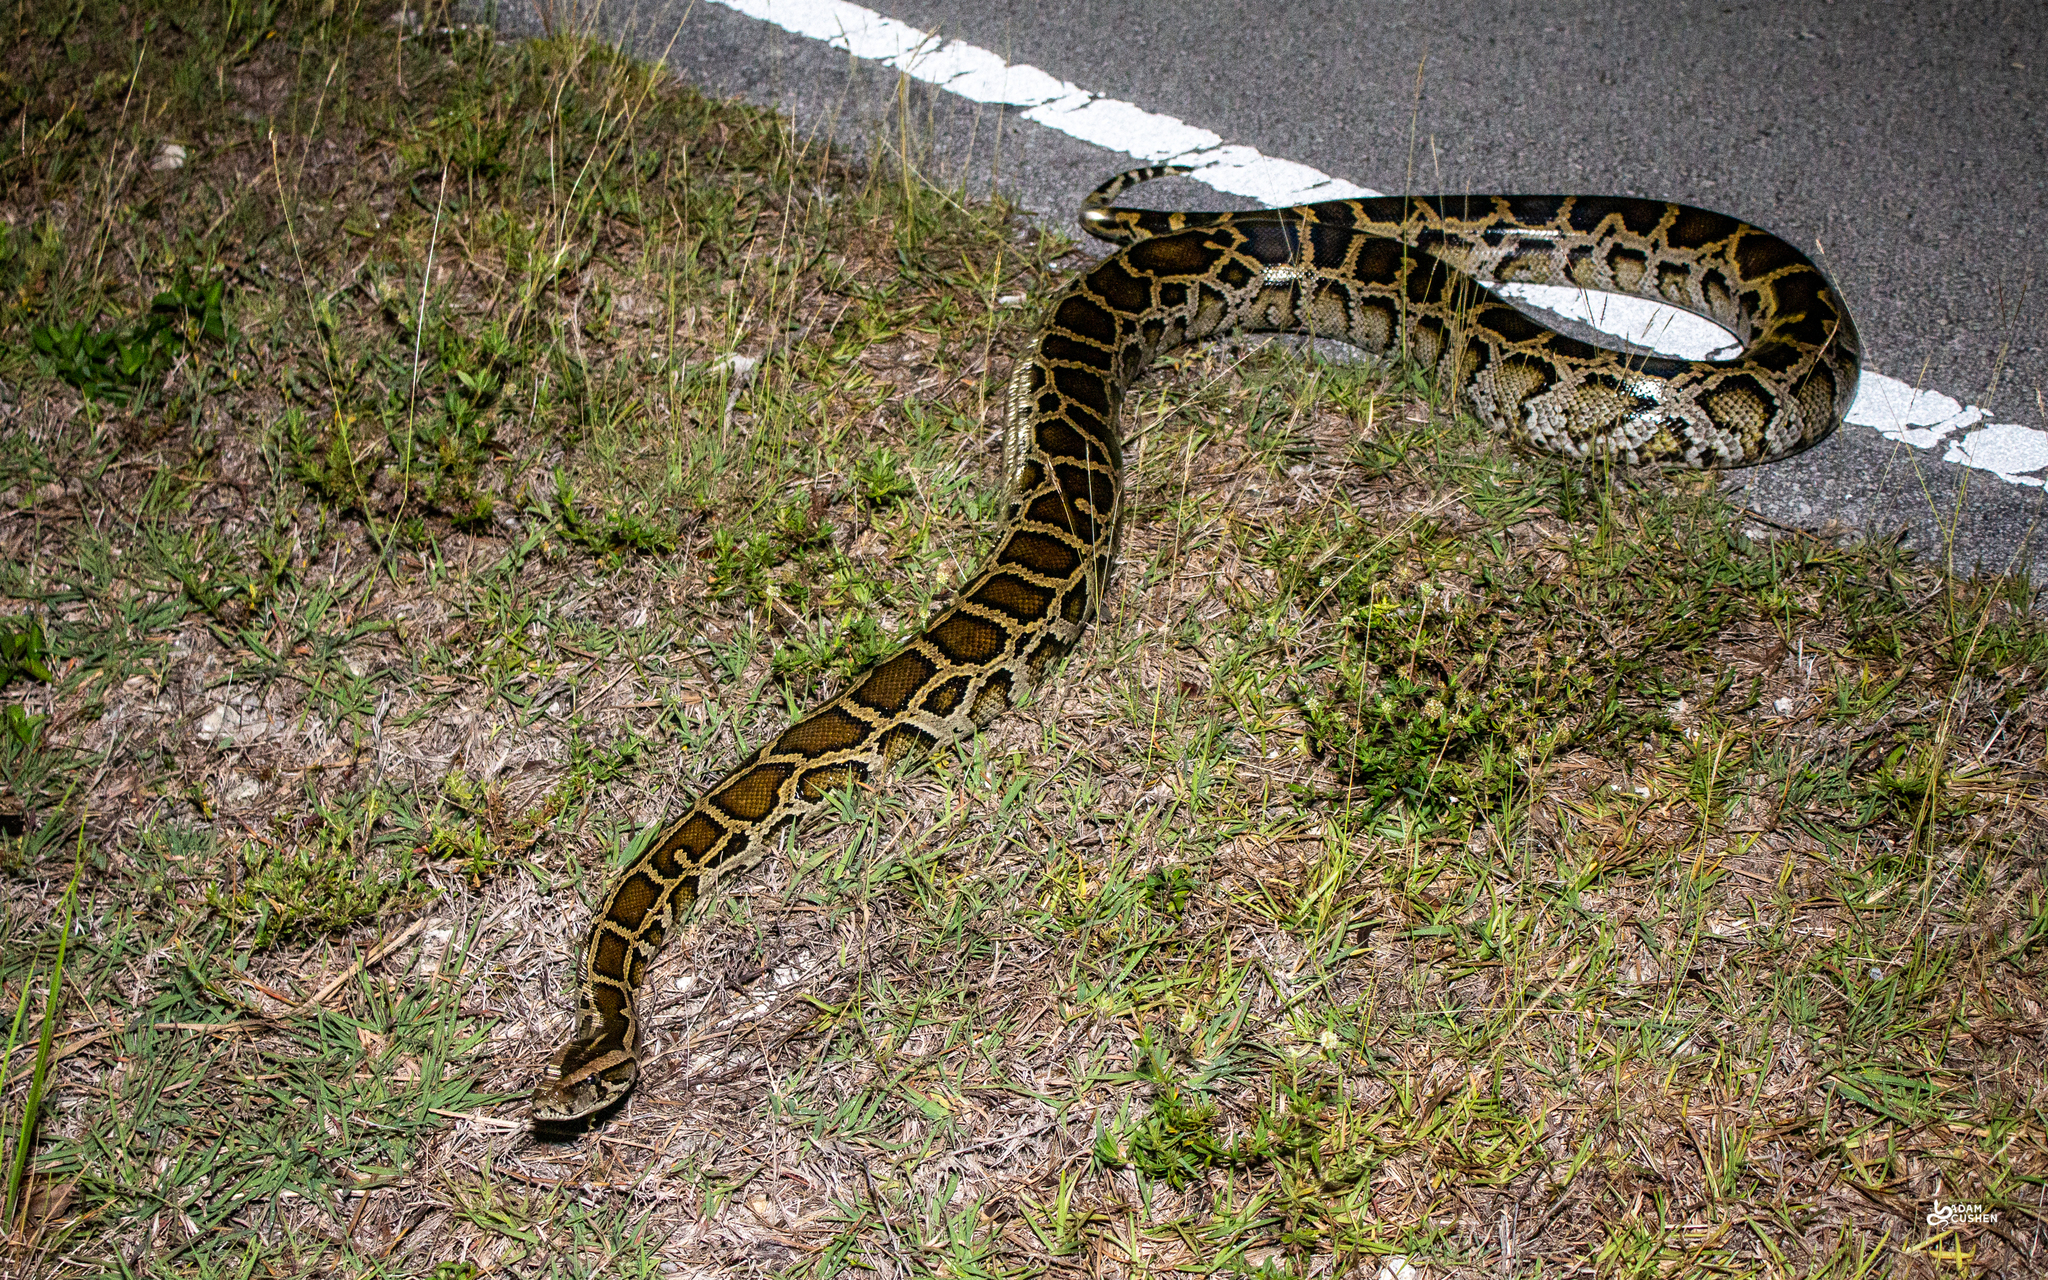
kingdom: Animalia
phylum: Chordata
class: Squamata
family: Pythonidae
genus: Python
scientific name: Python bivittatus
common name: Burmese python
